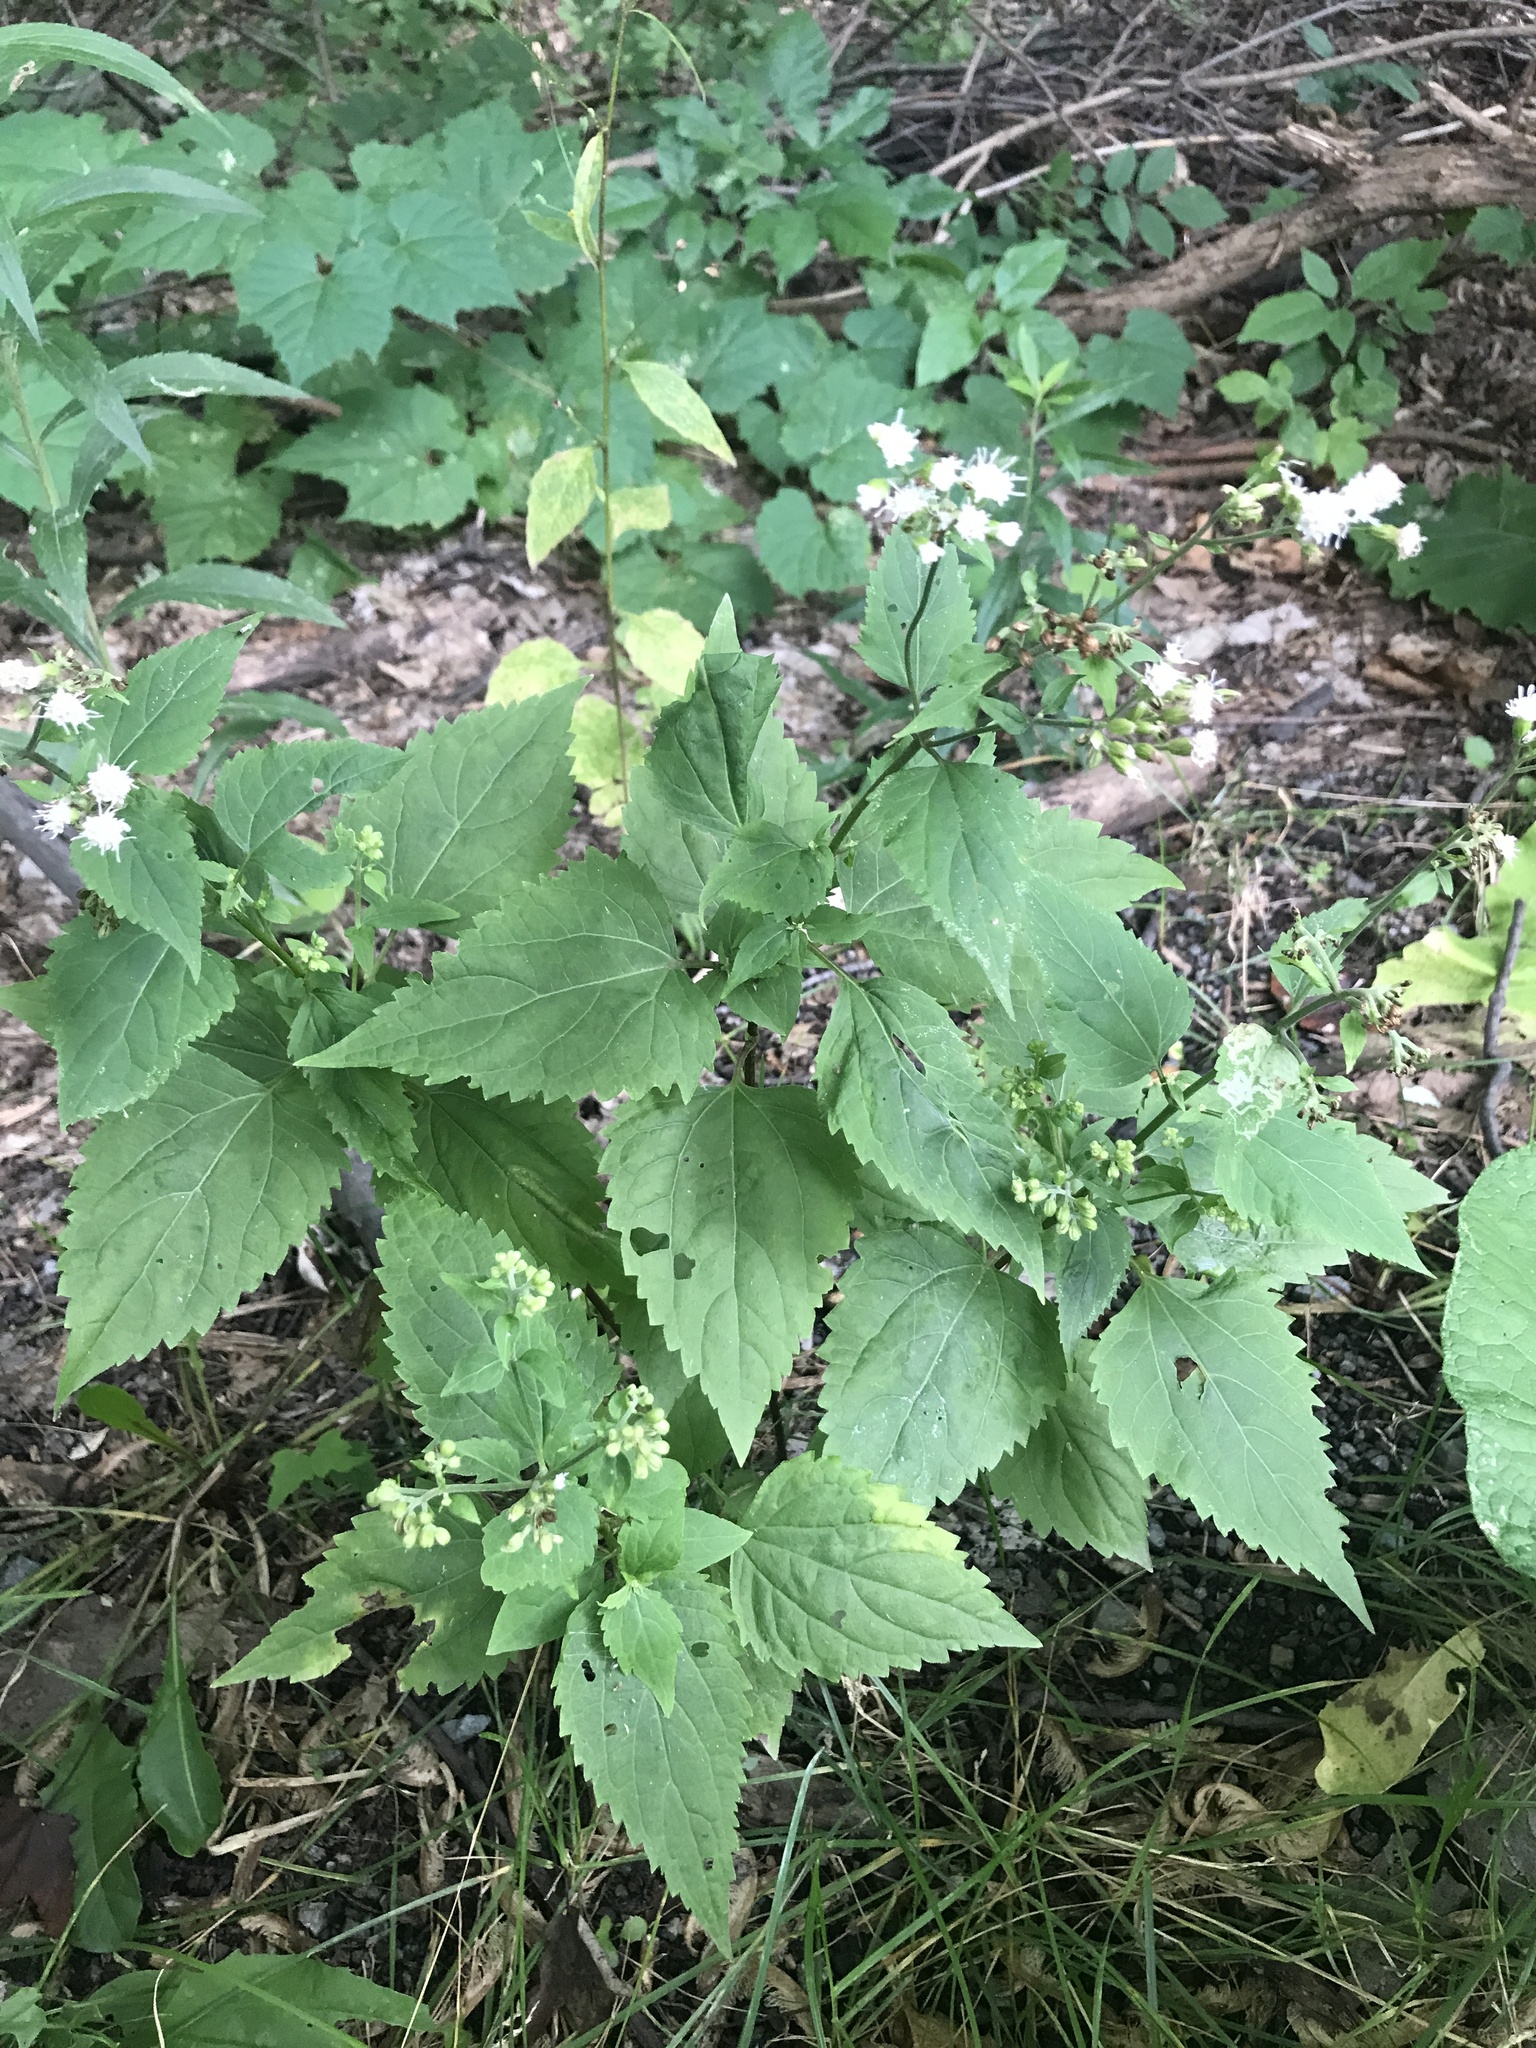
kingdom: Plantae
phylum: Tracheophyta
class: Magnoliopsida
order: Asterales
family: Asteraceae
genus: Ageratina
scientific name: Ageratina altissima
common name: White snakeroot
